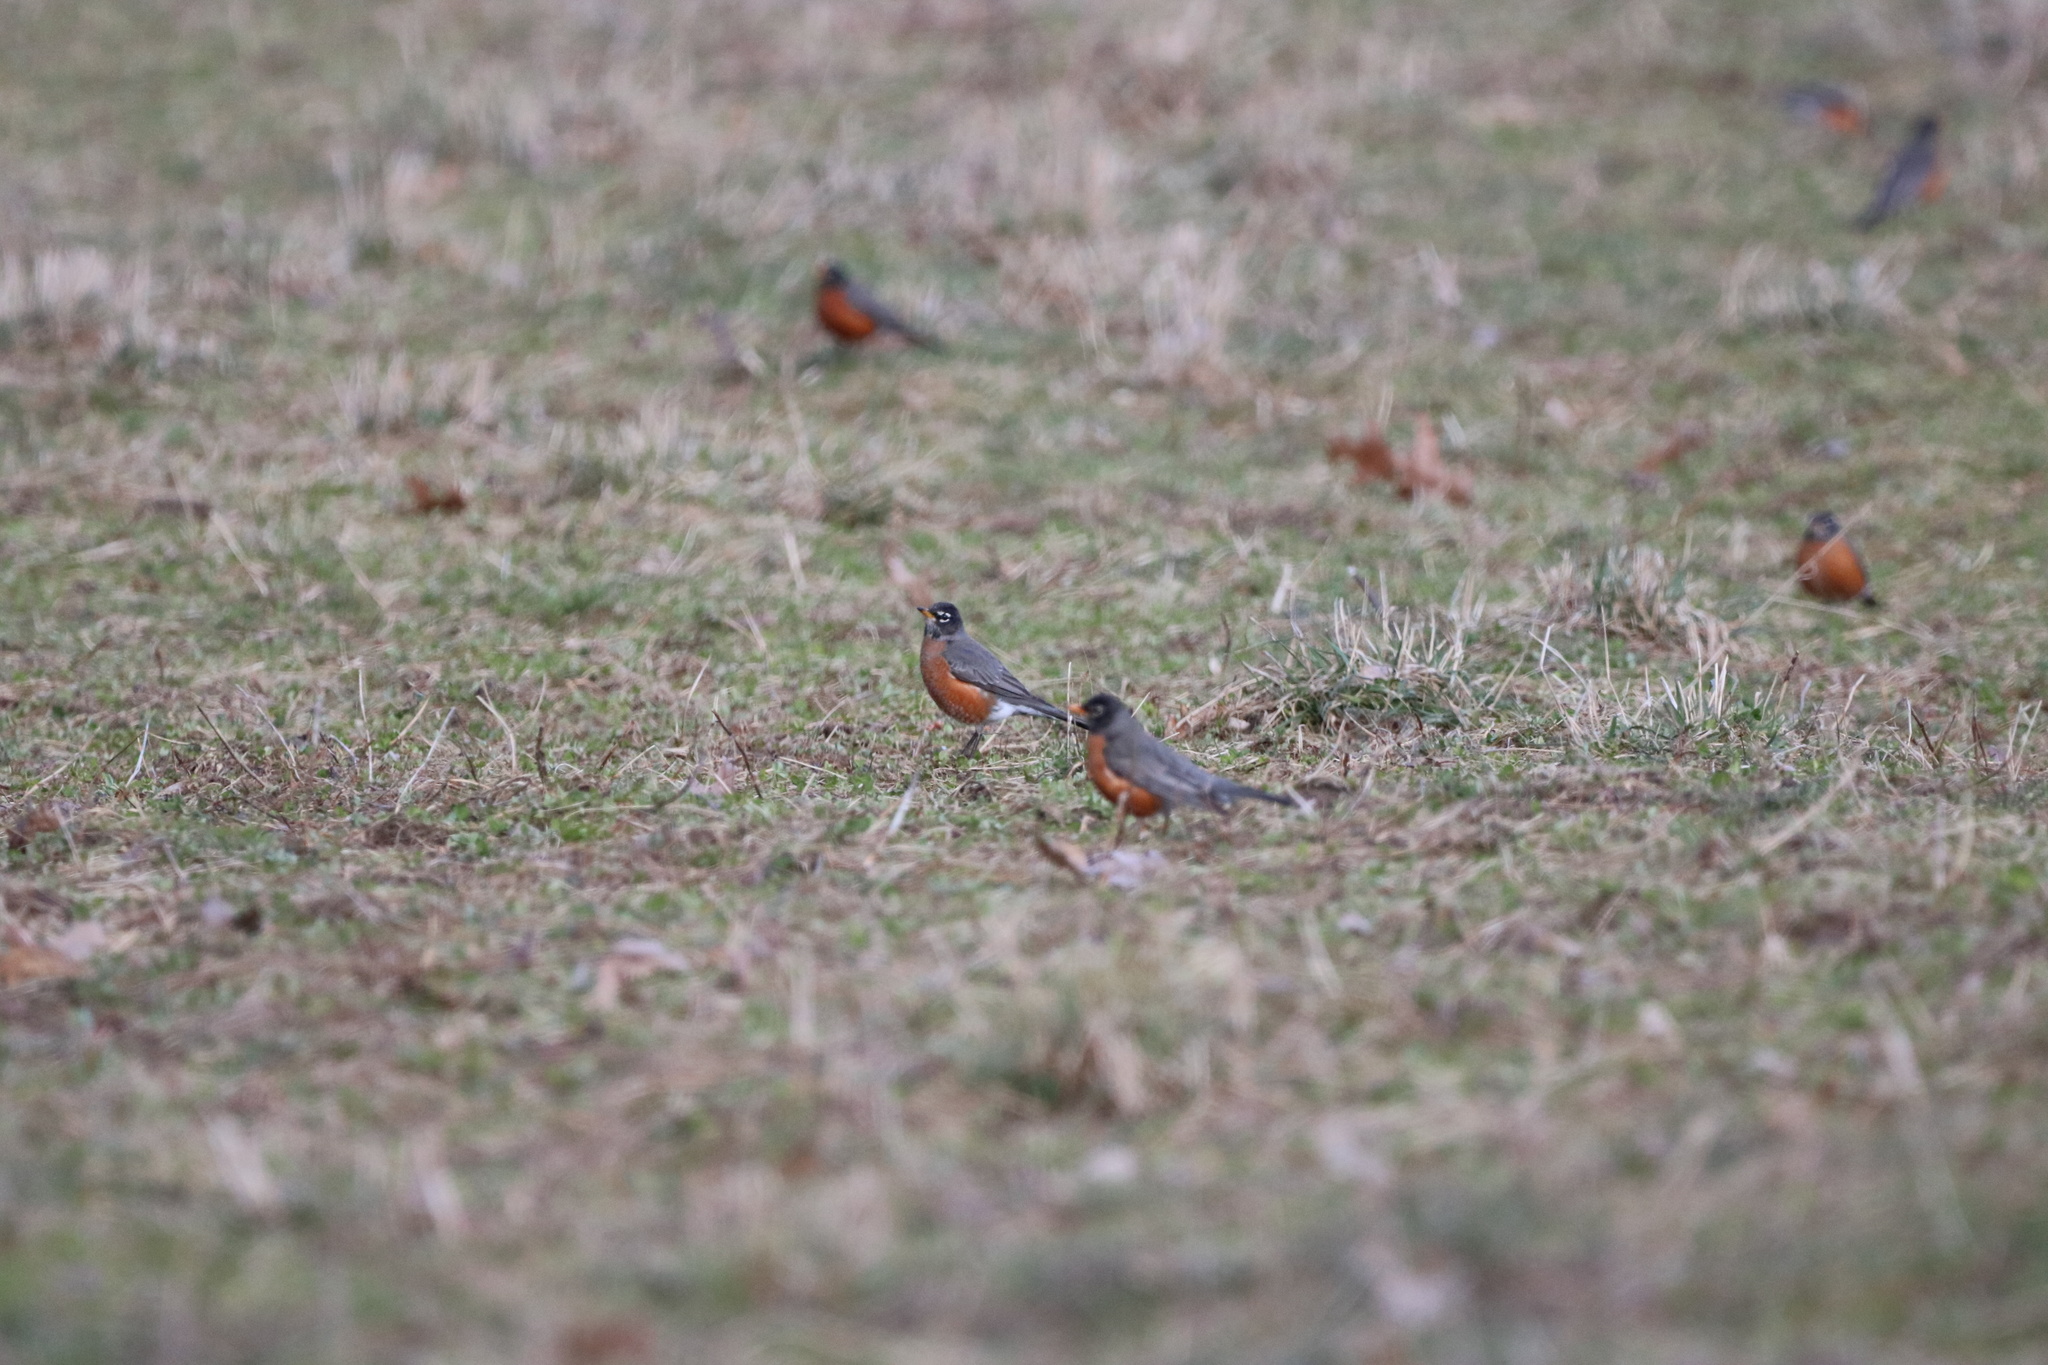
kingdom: Animalia
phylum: Chordata
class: Aves
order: Passeriformes
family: Turdidae
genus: Turdus
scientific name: Turdus migratorius
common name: American robin
